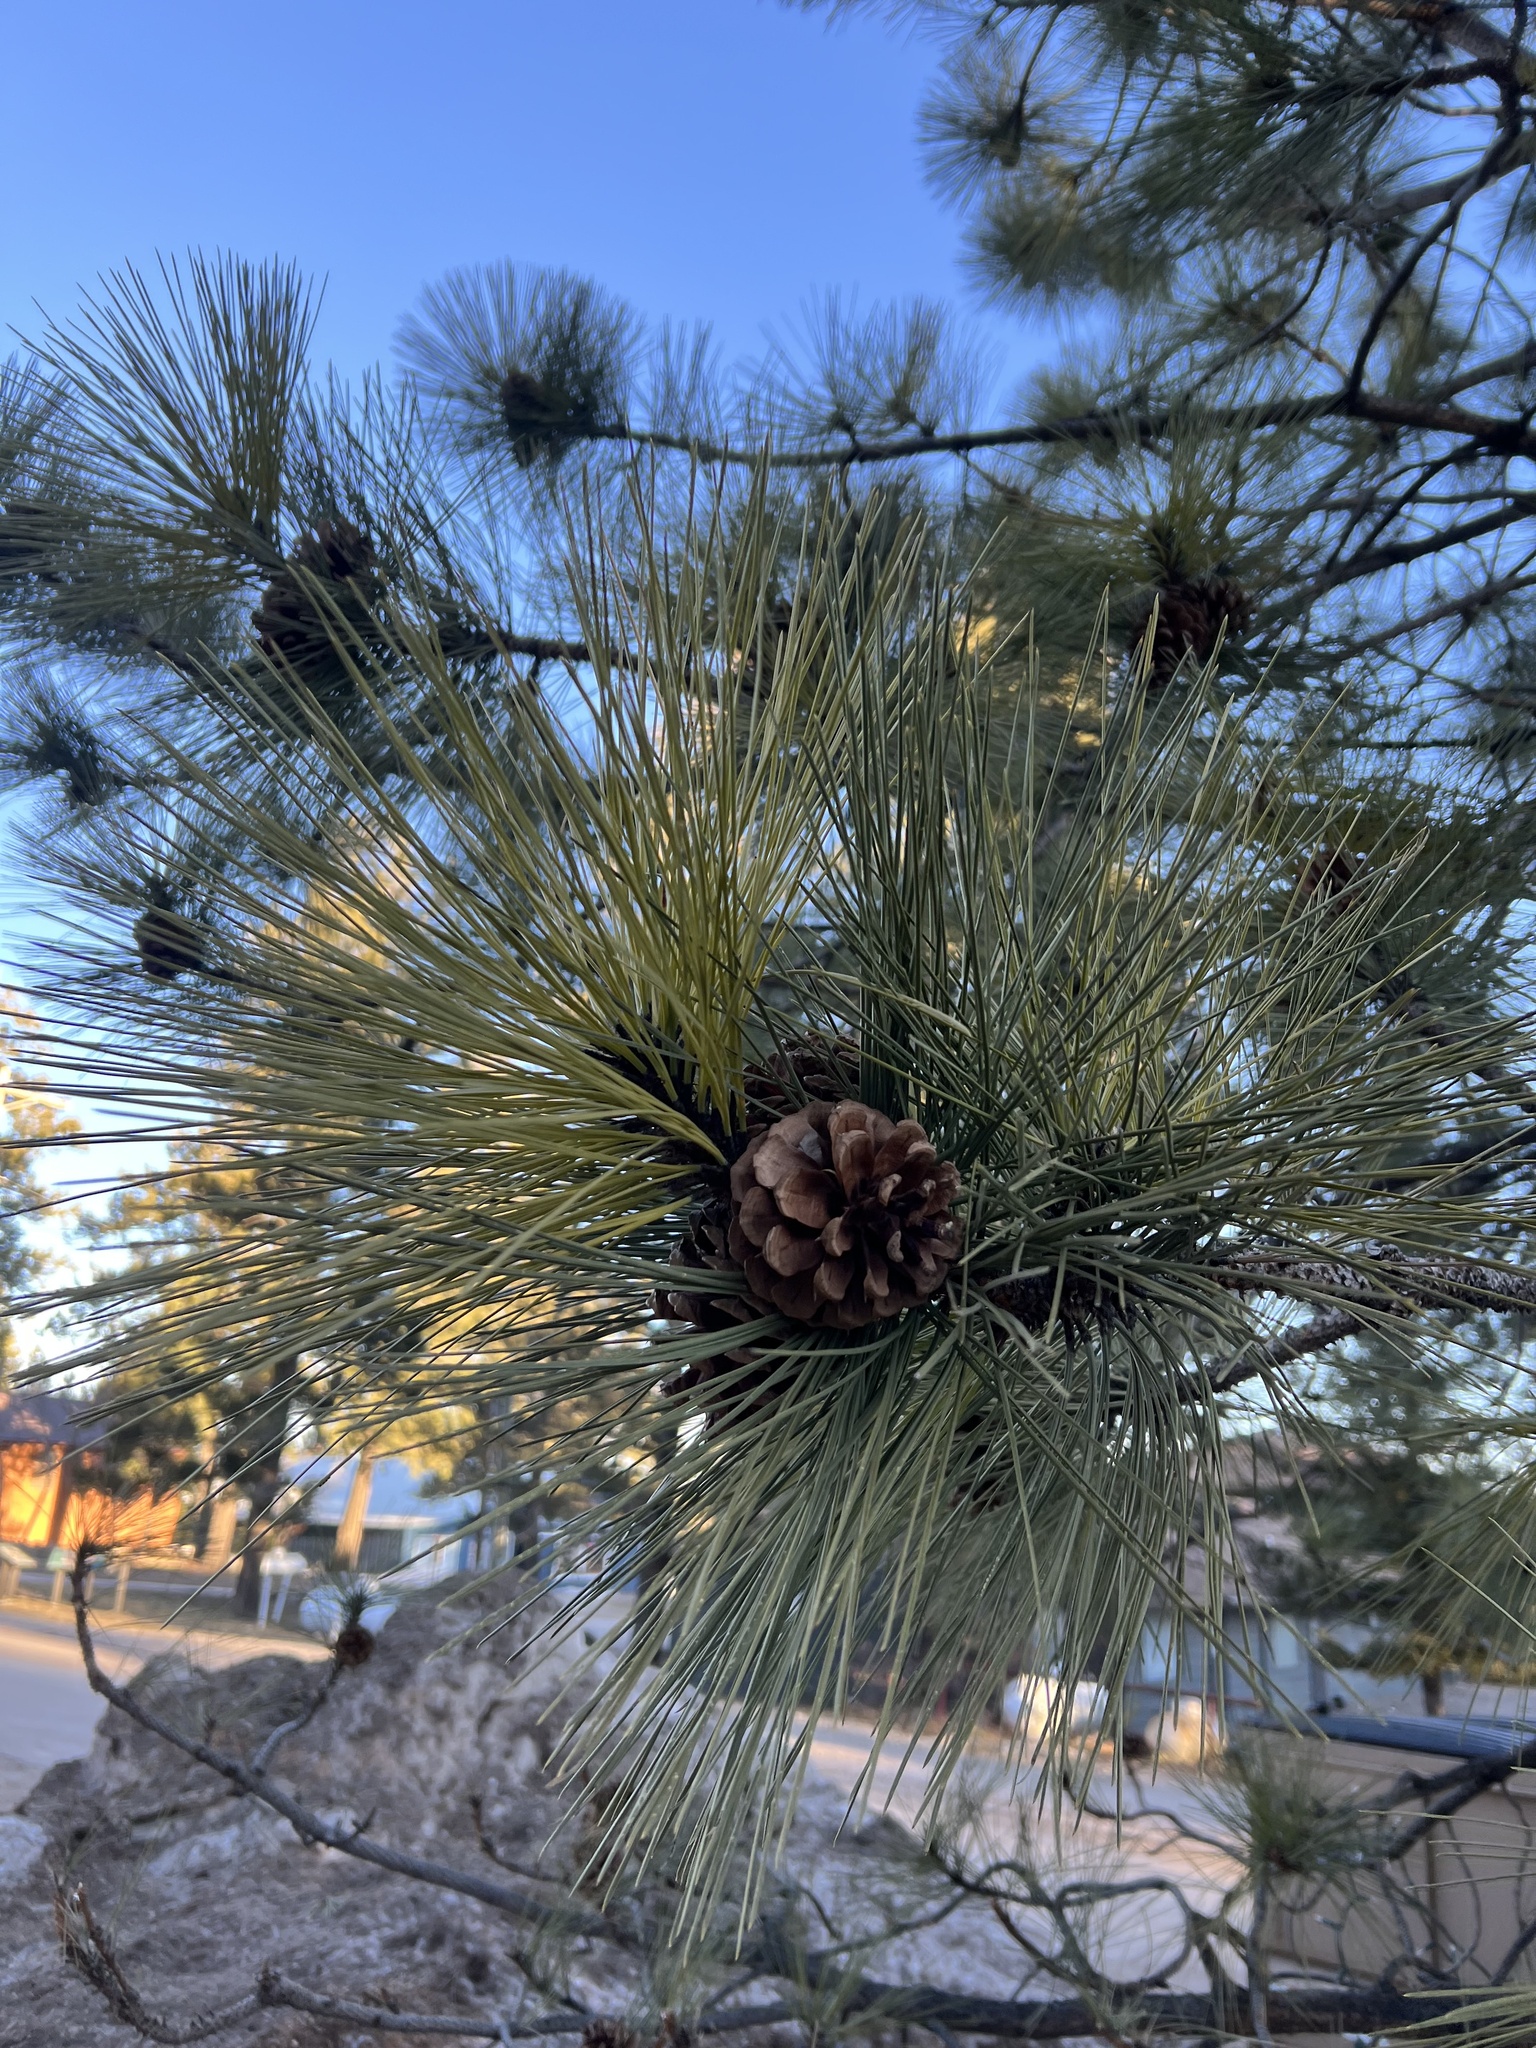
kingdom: Plantae
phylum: Tracheophyta
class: Pinopsida
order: Pinales
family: Pinaceae
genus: Pinus
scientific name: Pinus ponderosa
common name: Western yellow-pine
